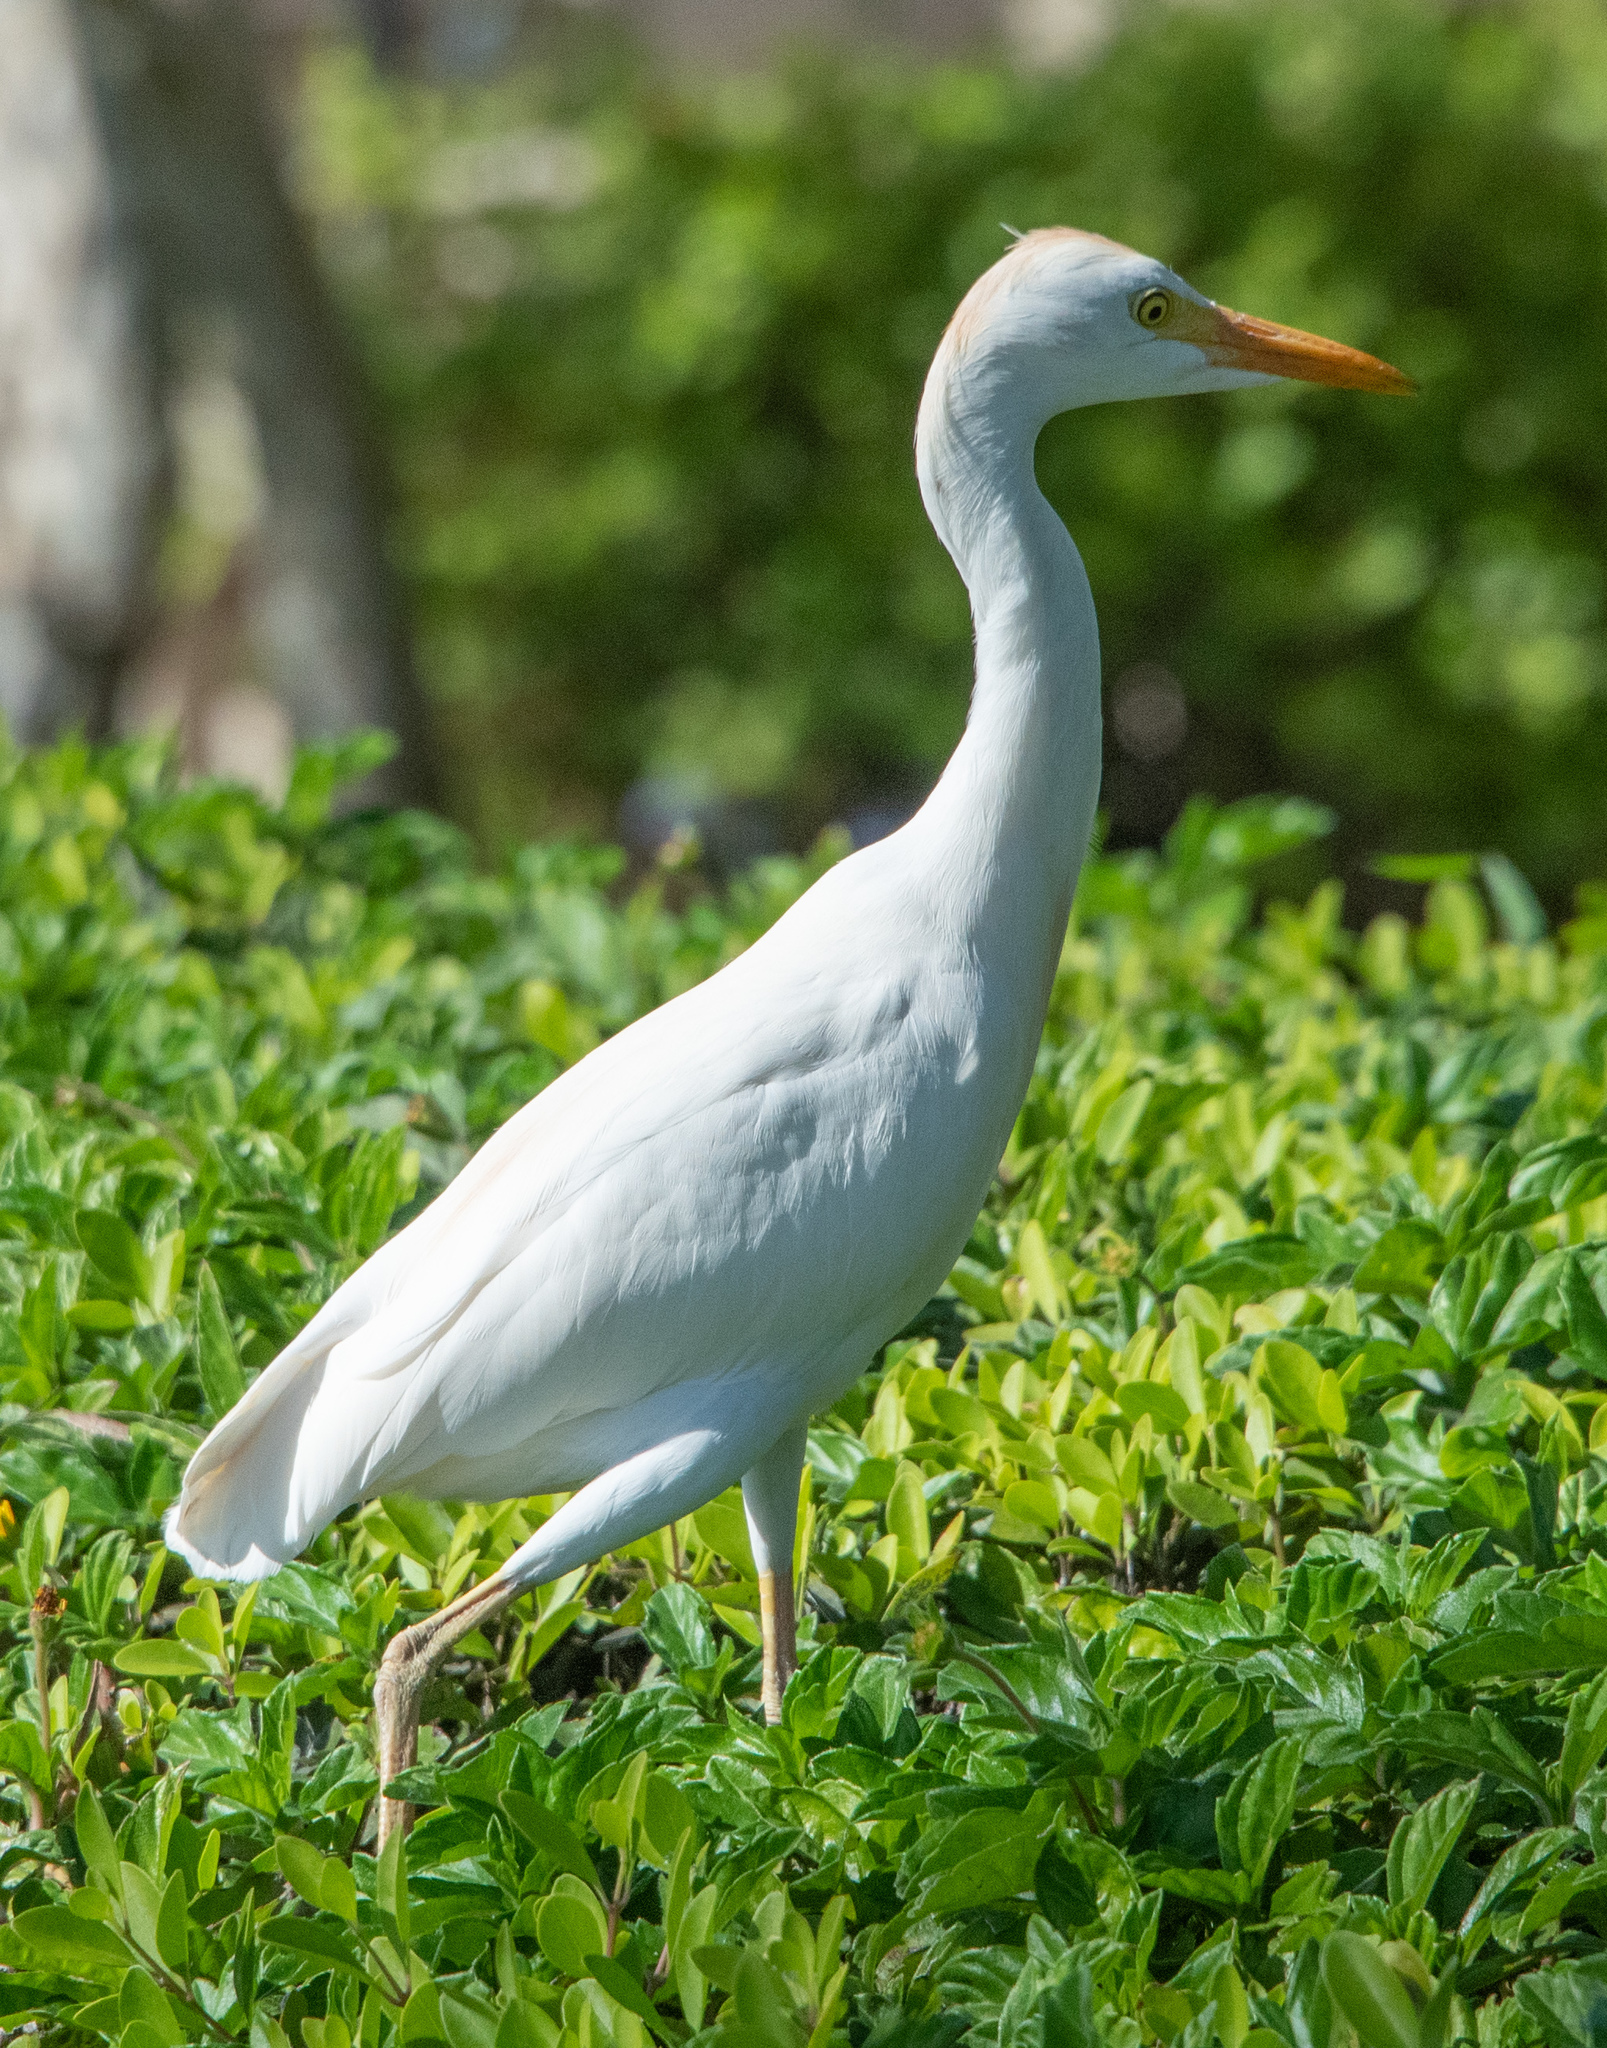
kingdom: Animalia
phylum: Chordata
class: Aves
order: Pelecaniformes
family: Ardeidae
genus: Bubulcus
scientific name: Bubulcus ibis
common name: Cattle egret
